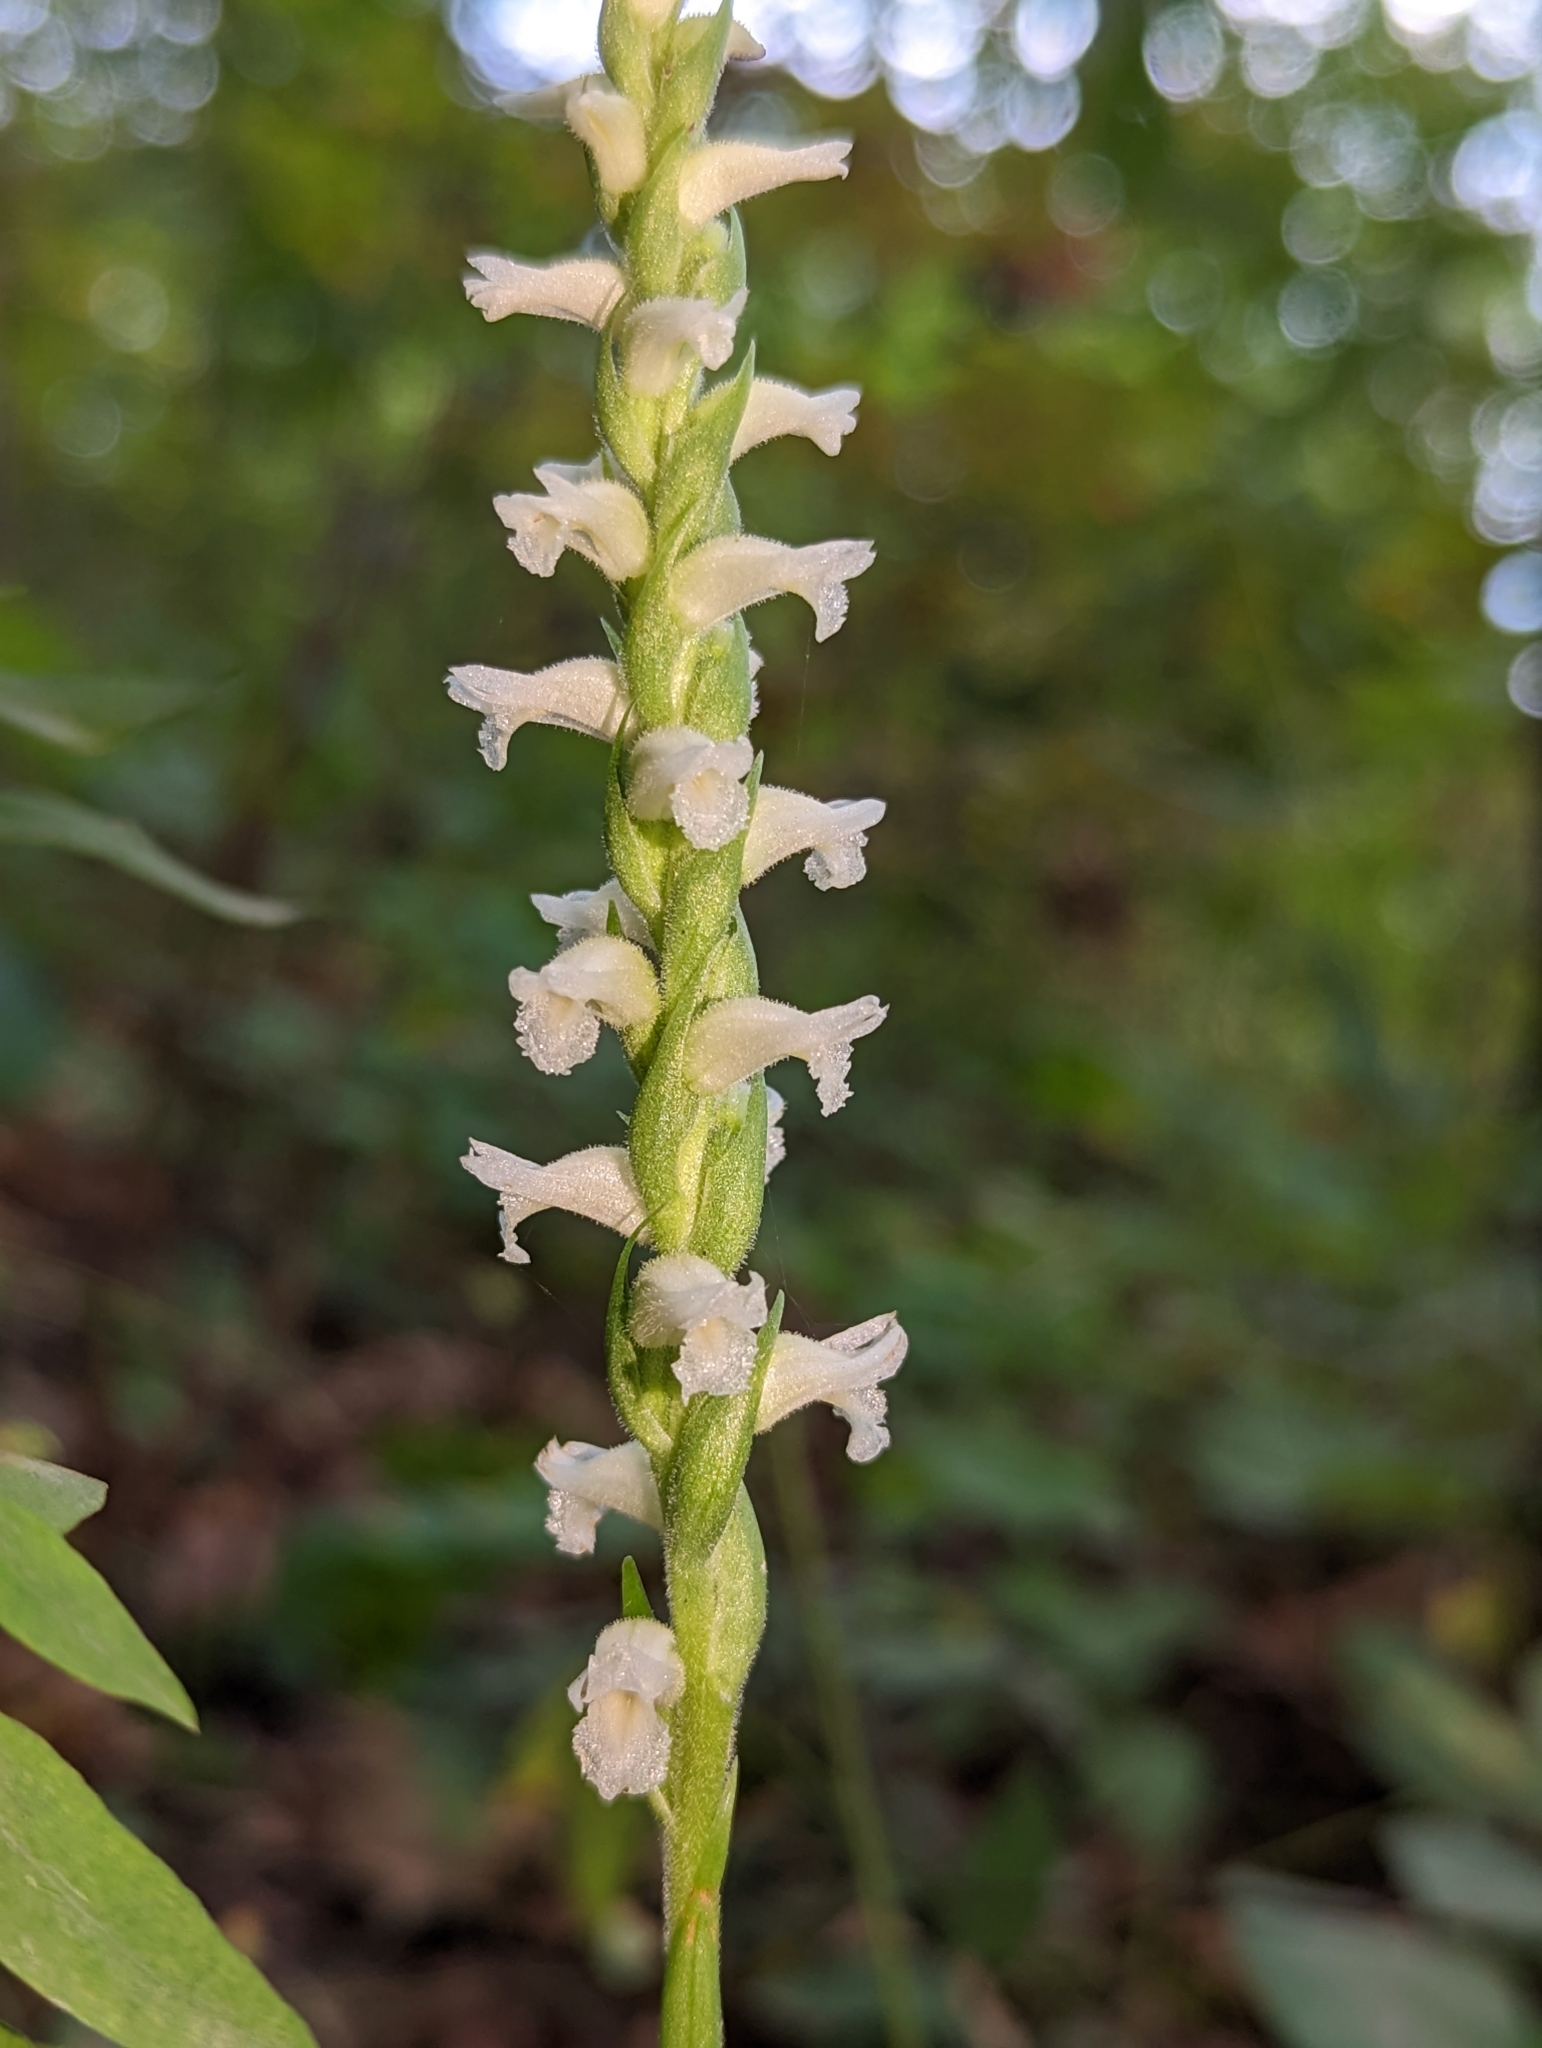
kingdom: Plantae
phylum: Tracheophyta
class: Liliopsida
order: Asparagales
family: Orchidaceae
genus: Spiranthes
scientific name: Spiranthes ochroleuca
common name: Yellow ladies'-tresses
